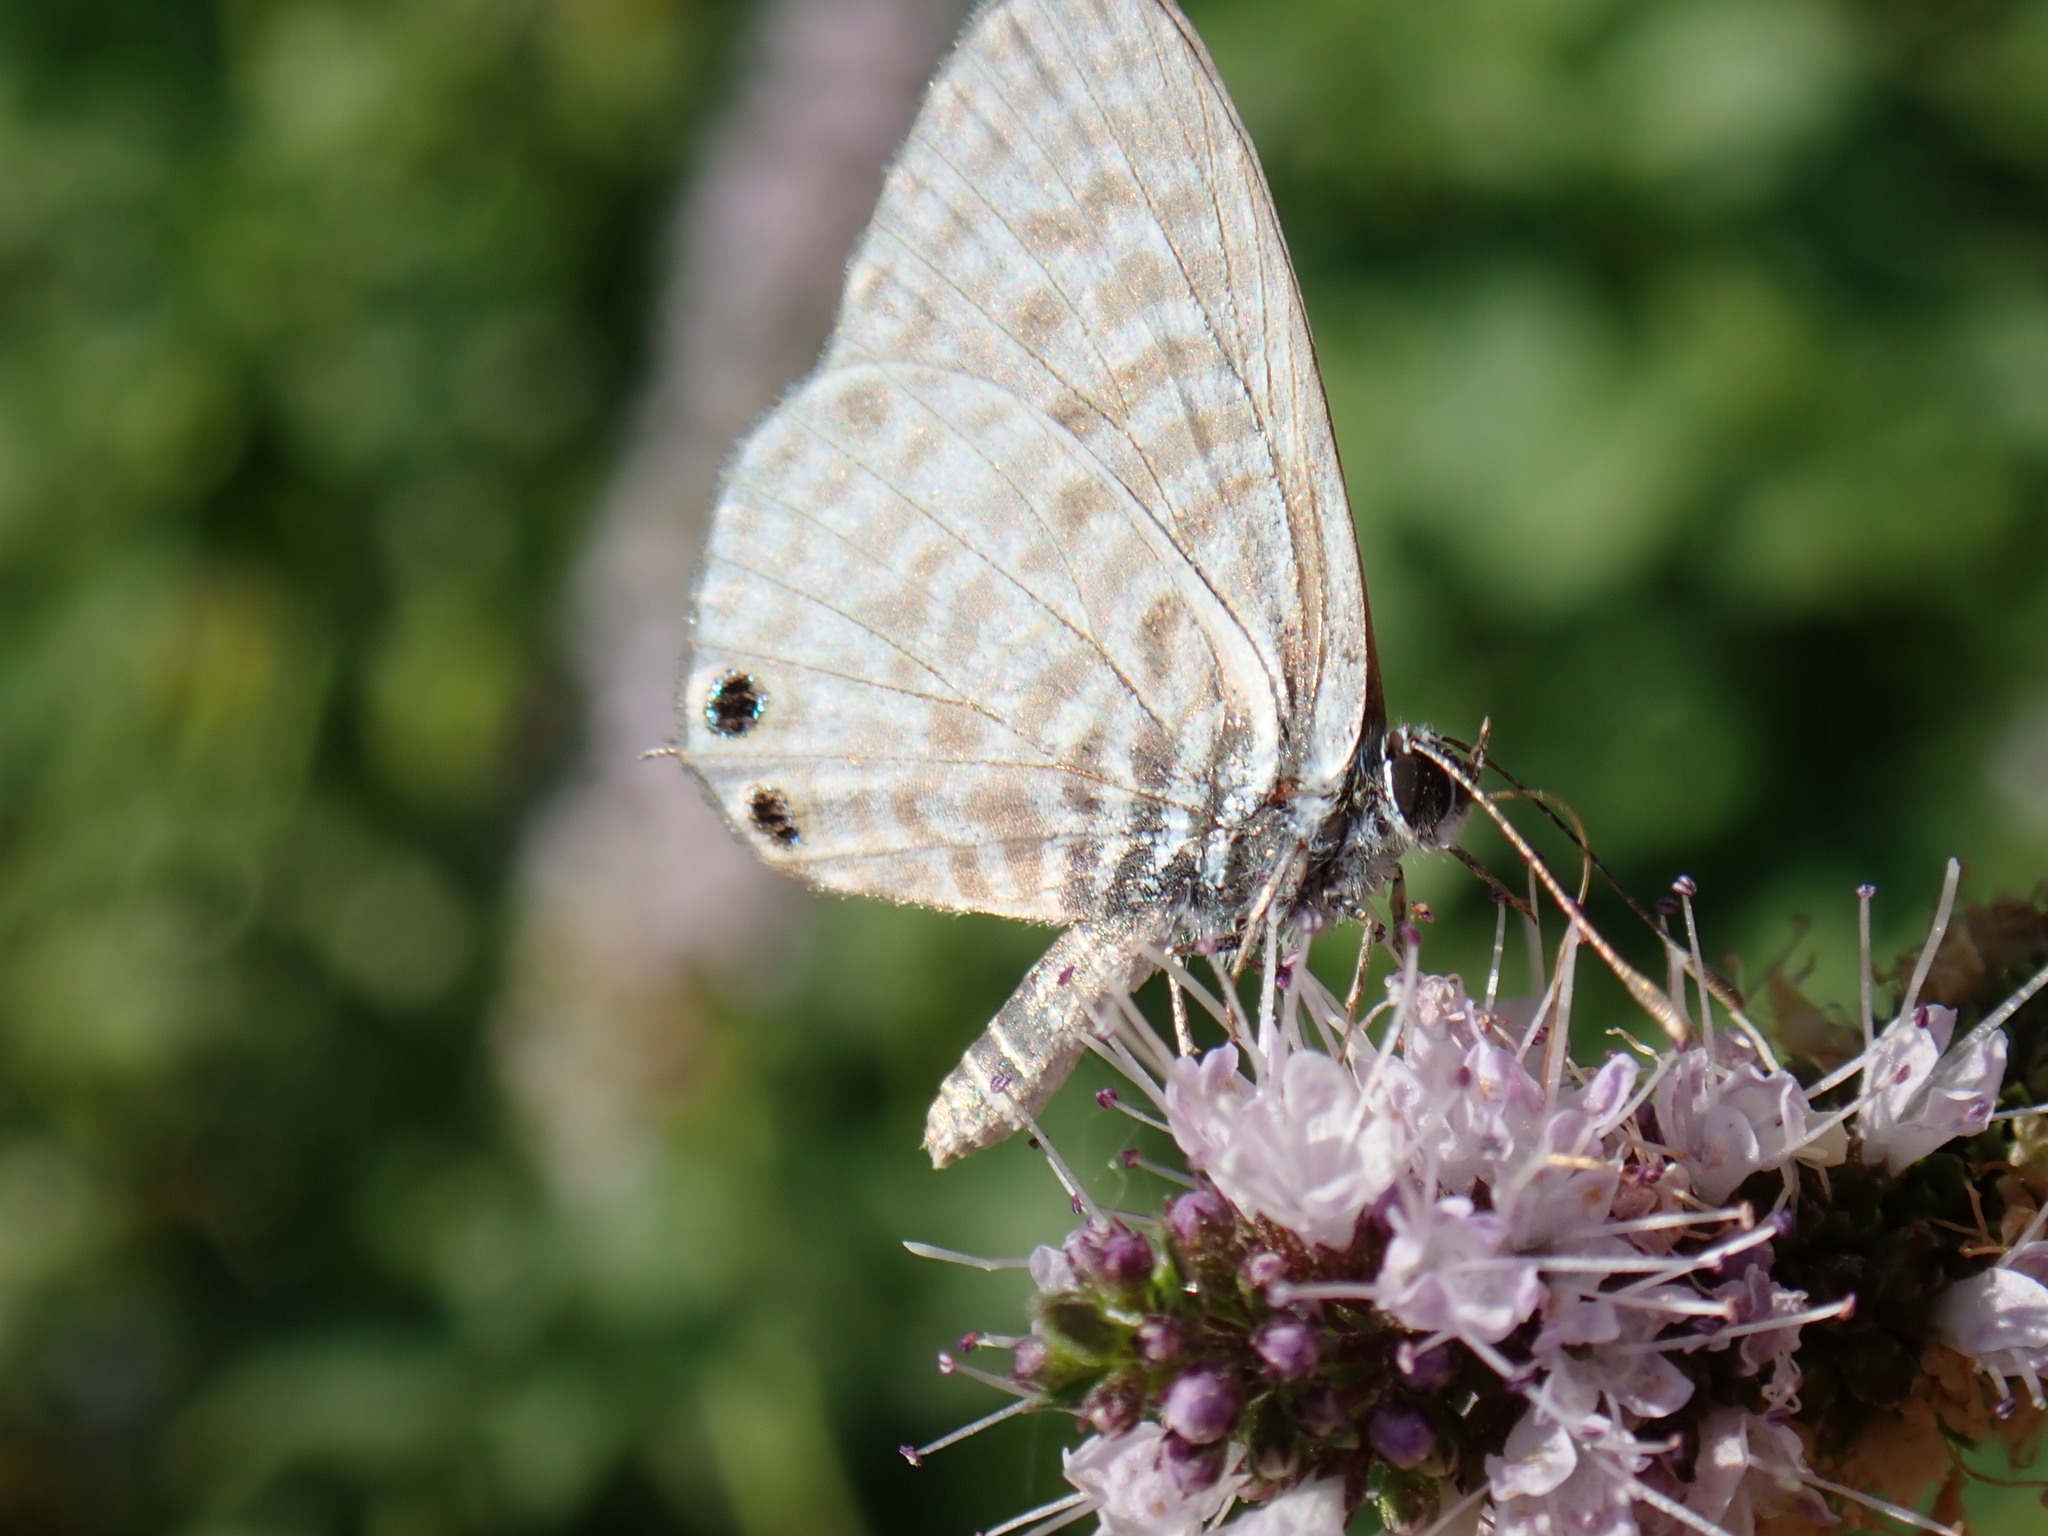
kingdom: Animalia
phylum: Arthropoda
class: Insecta
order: Lepidoptera
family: Lycaenidae
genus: Leptotes
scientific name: Leptotes pirithous
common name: Lang's short-tailed blue
